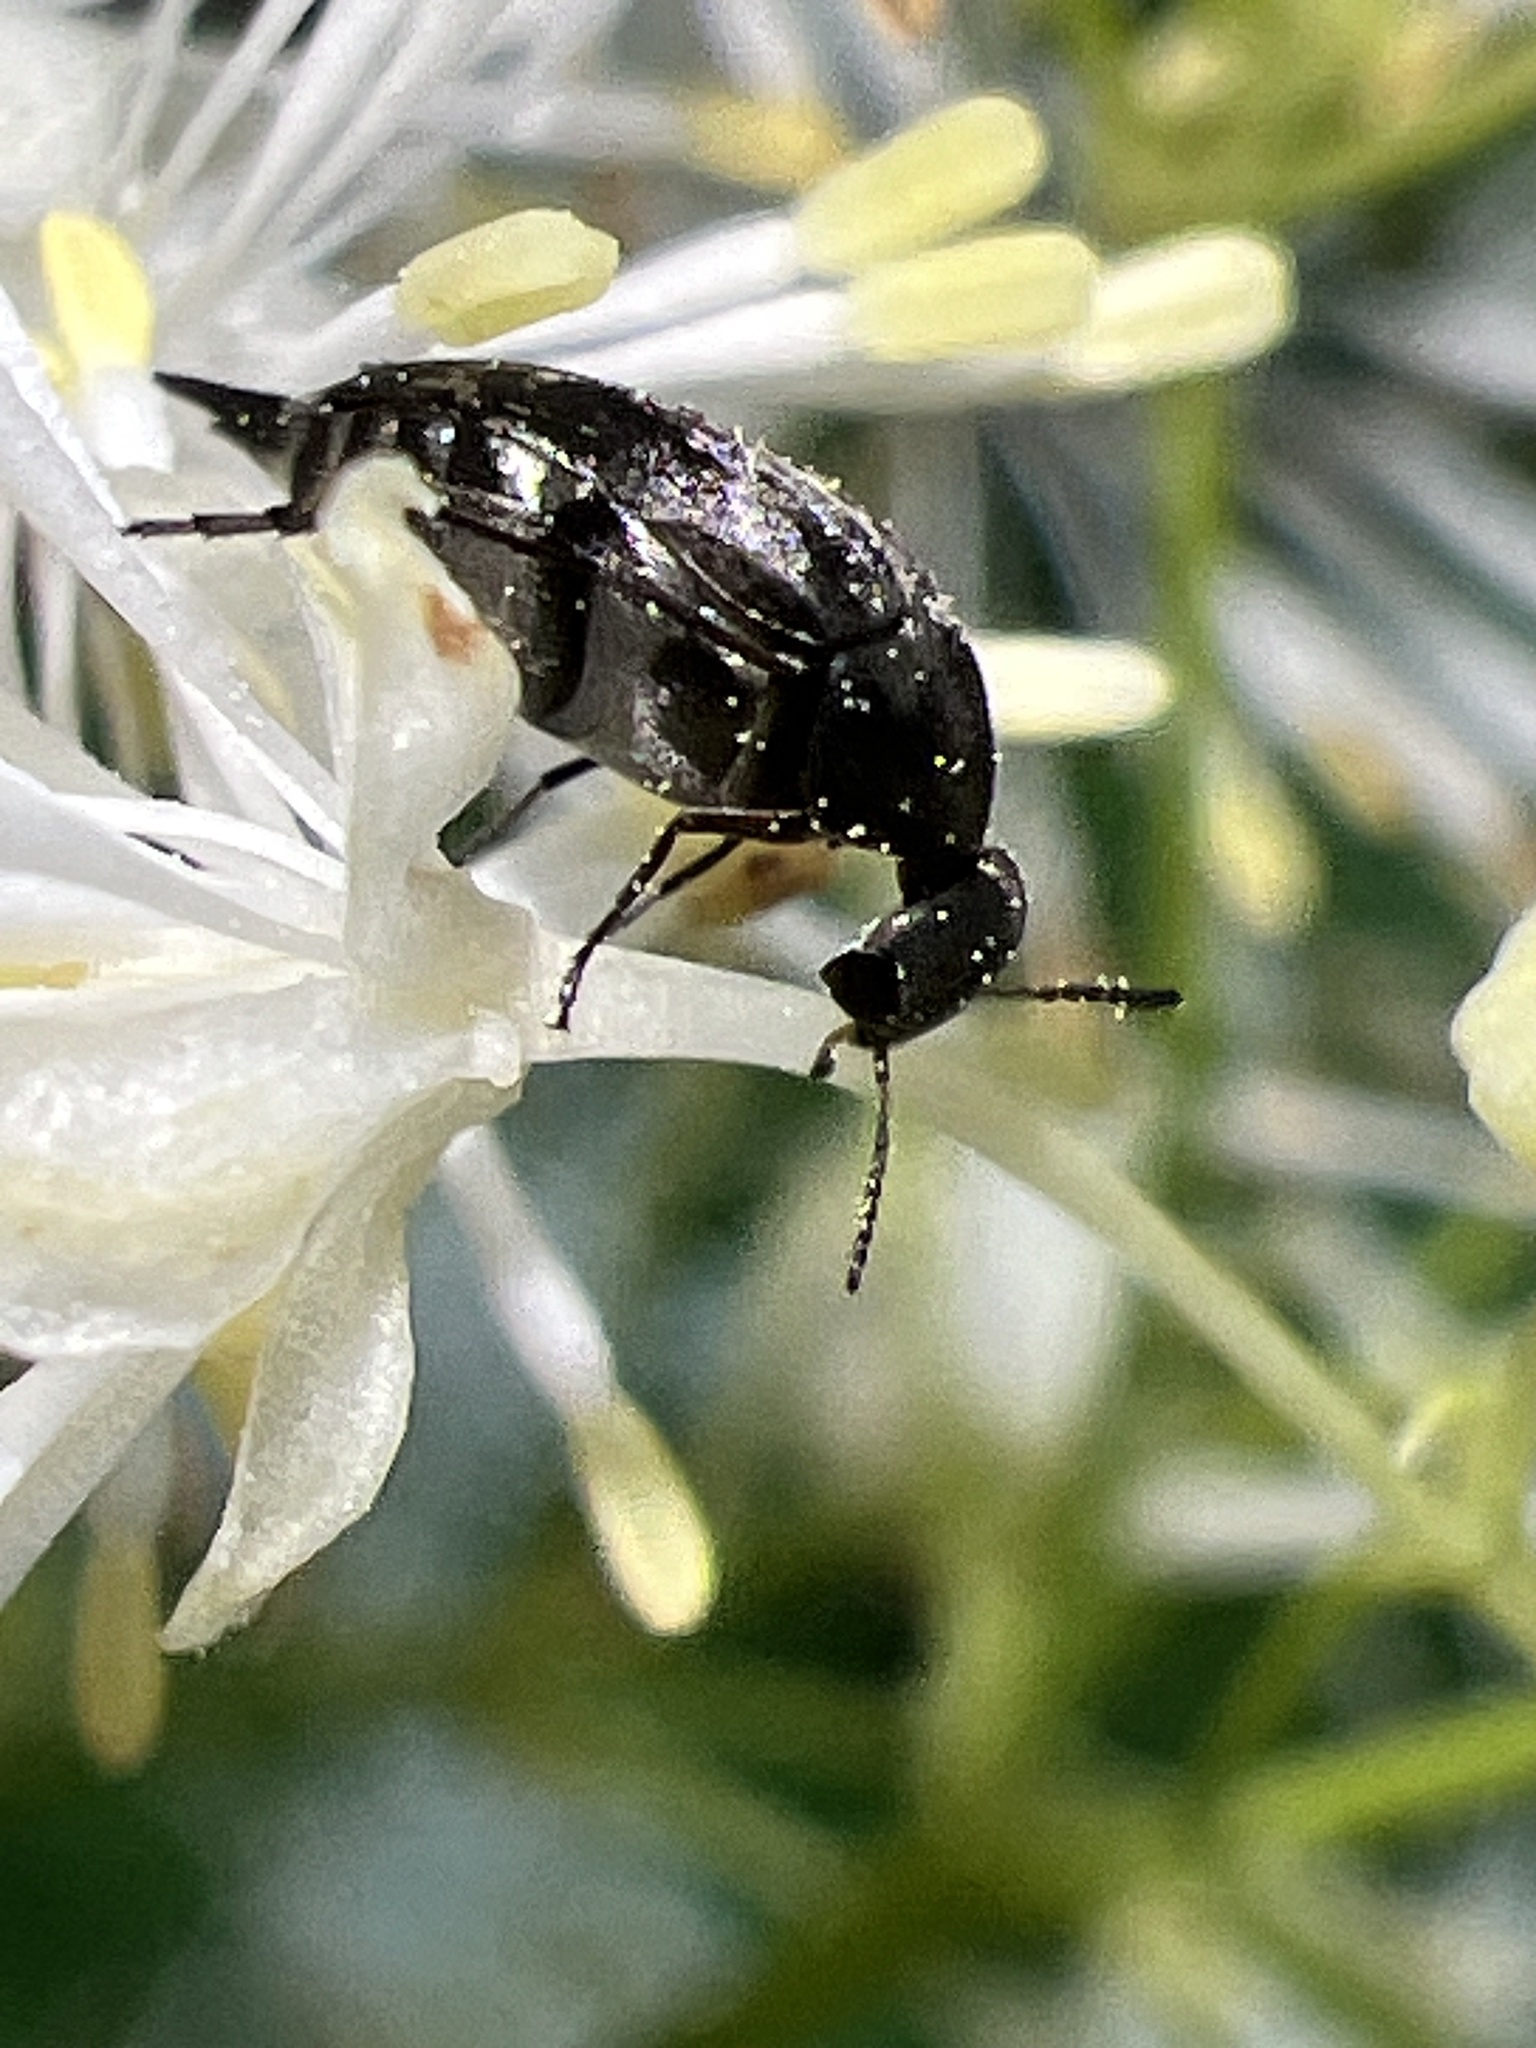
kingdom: Animalia
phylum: Arthropoda
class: Insecta
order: Coleoptera
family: Mordellidae
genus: Mordella
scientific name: Mordella marginata
